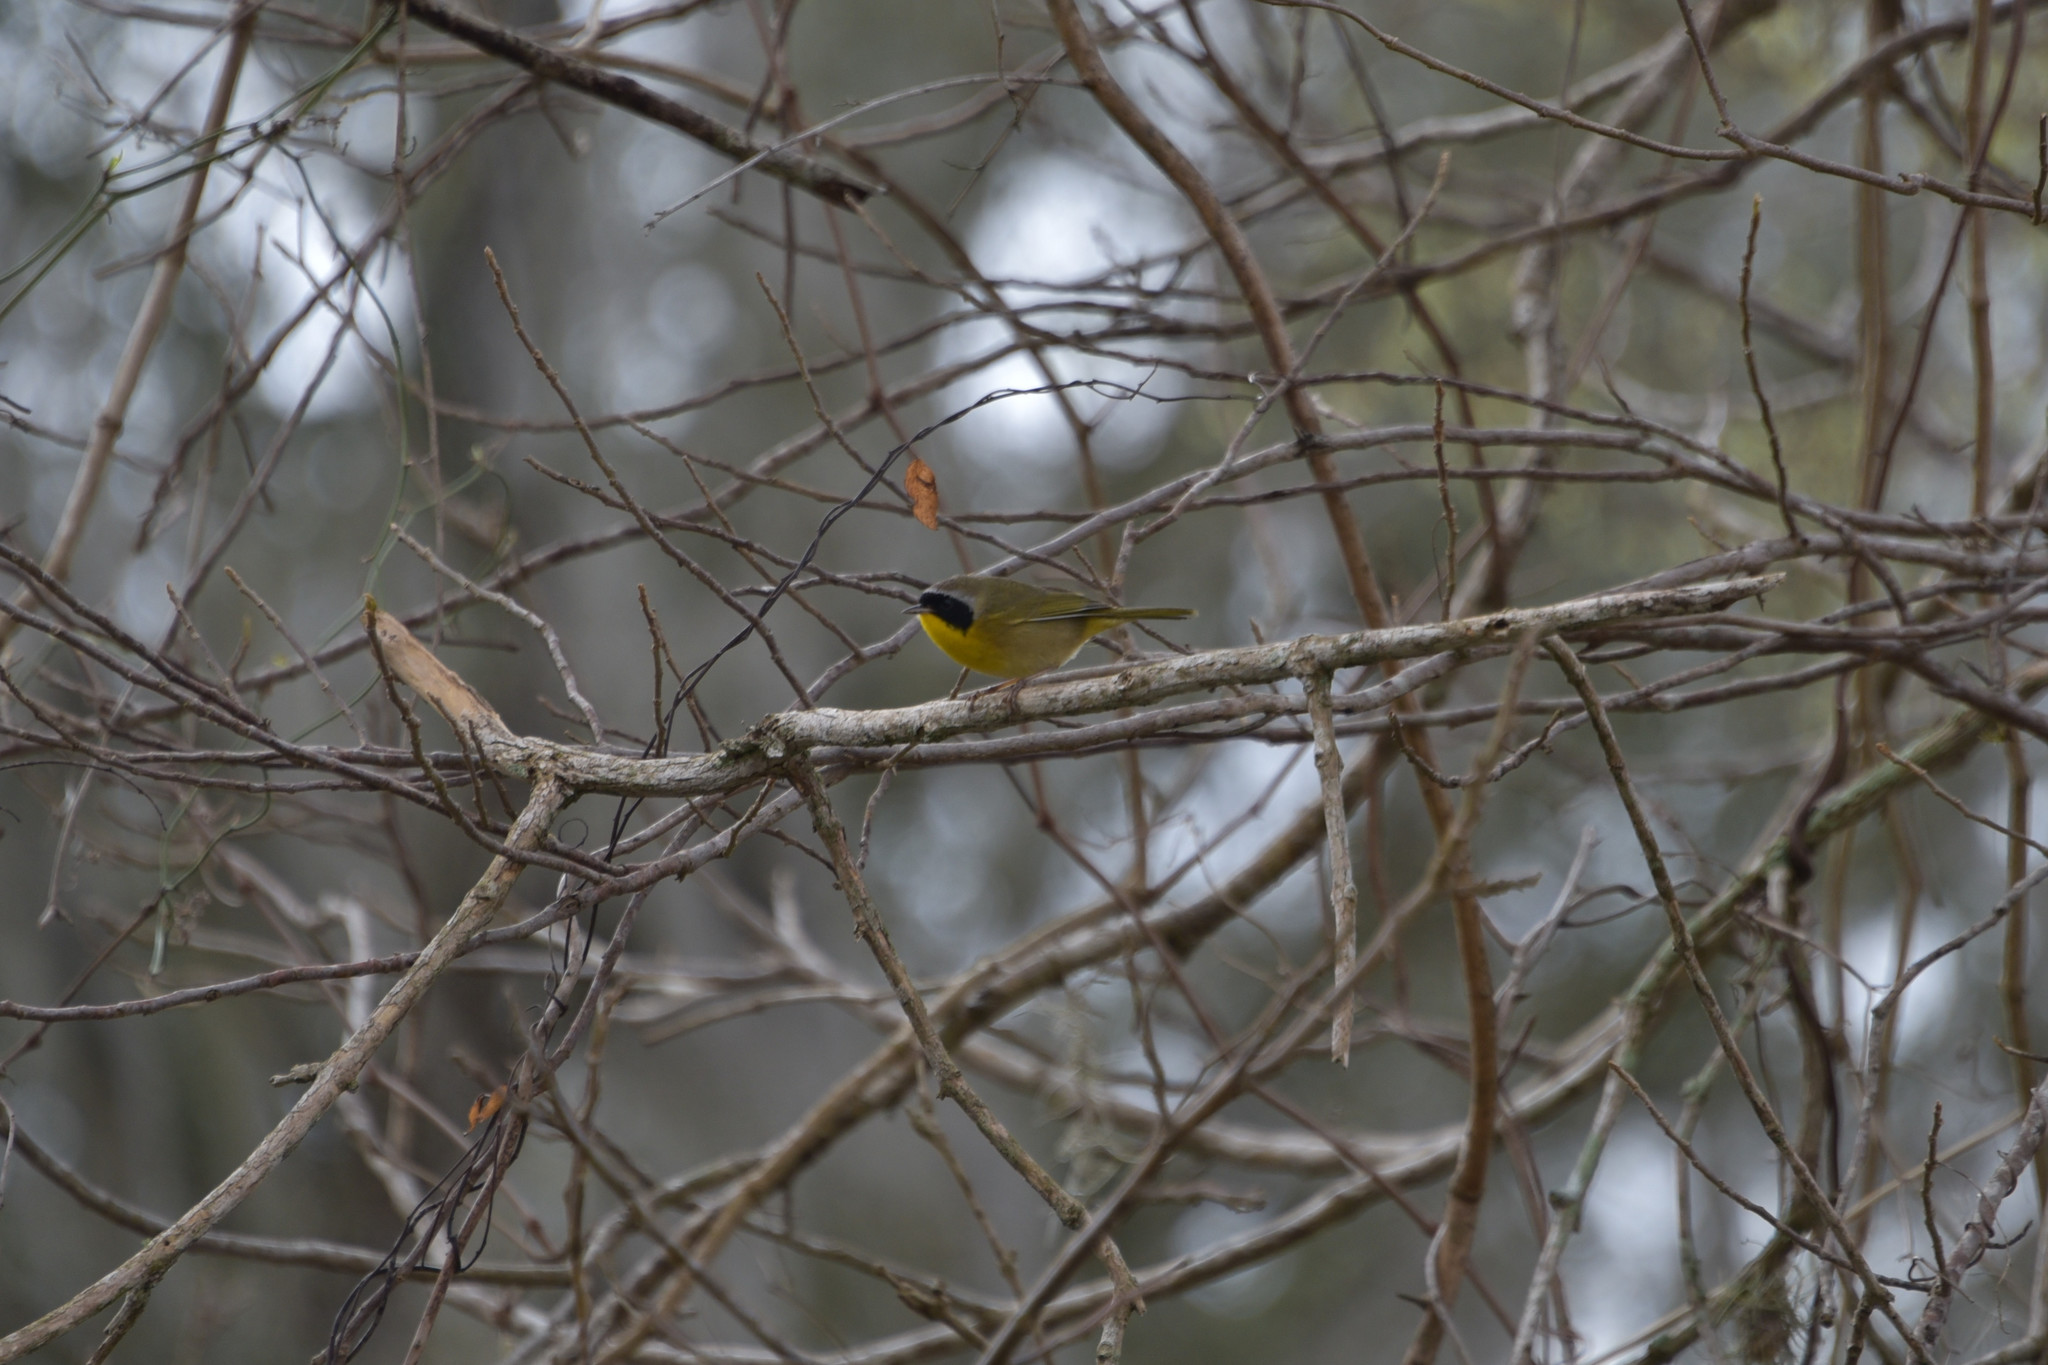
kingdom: Animalia
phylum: Chordata
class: Aves
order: Passeriformes
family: Parulidae
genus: Geothlypis
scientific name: Geothlypis trichas
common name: Common yellowthroat
